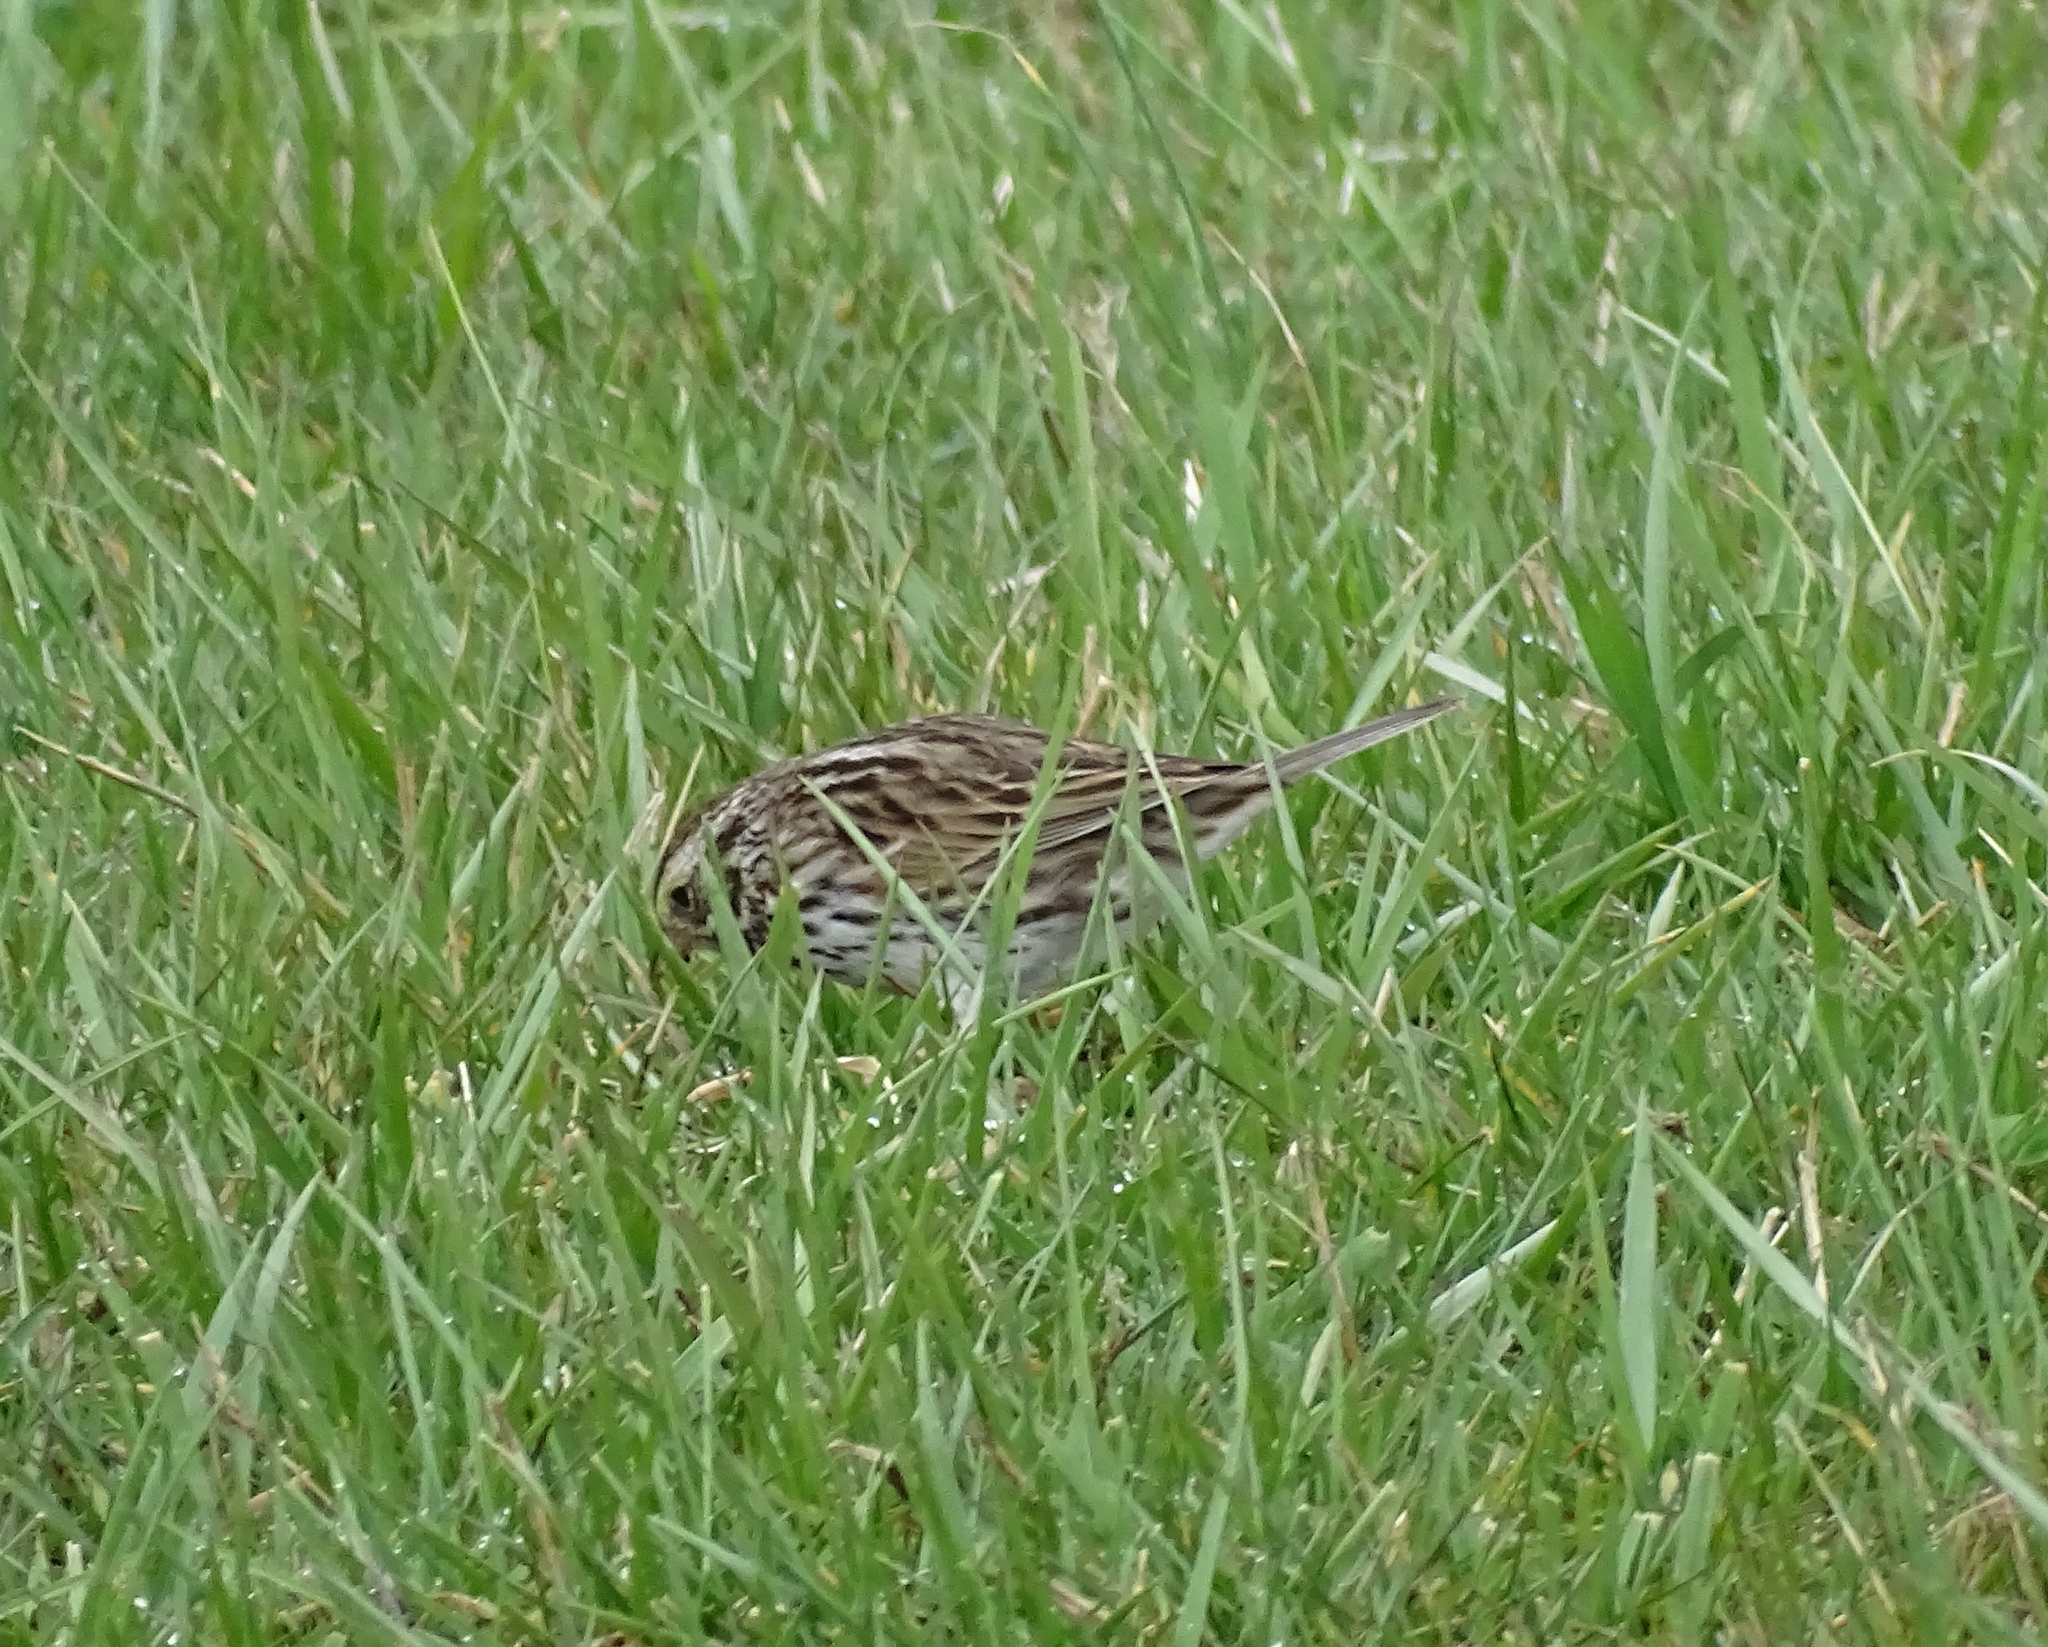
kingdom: Animalia
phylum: Chordata
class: Aves
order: Passeriformes
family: Passerellidae
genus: Passerculus
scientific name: Passerculus sandwichensis
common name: Savannah sparrow
